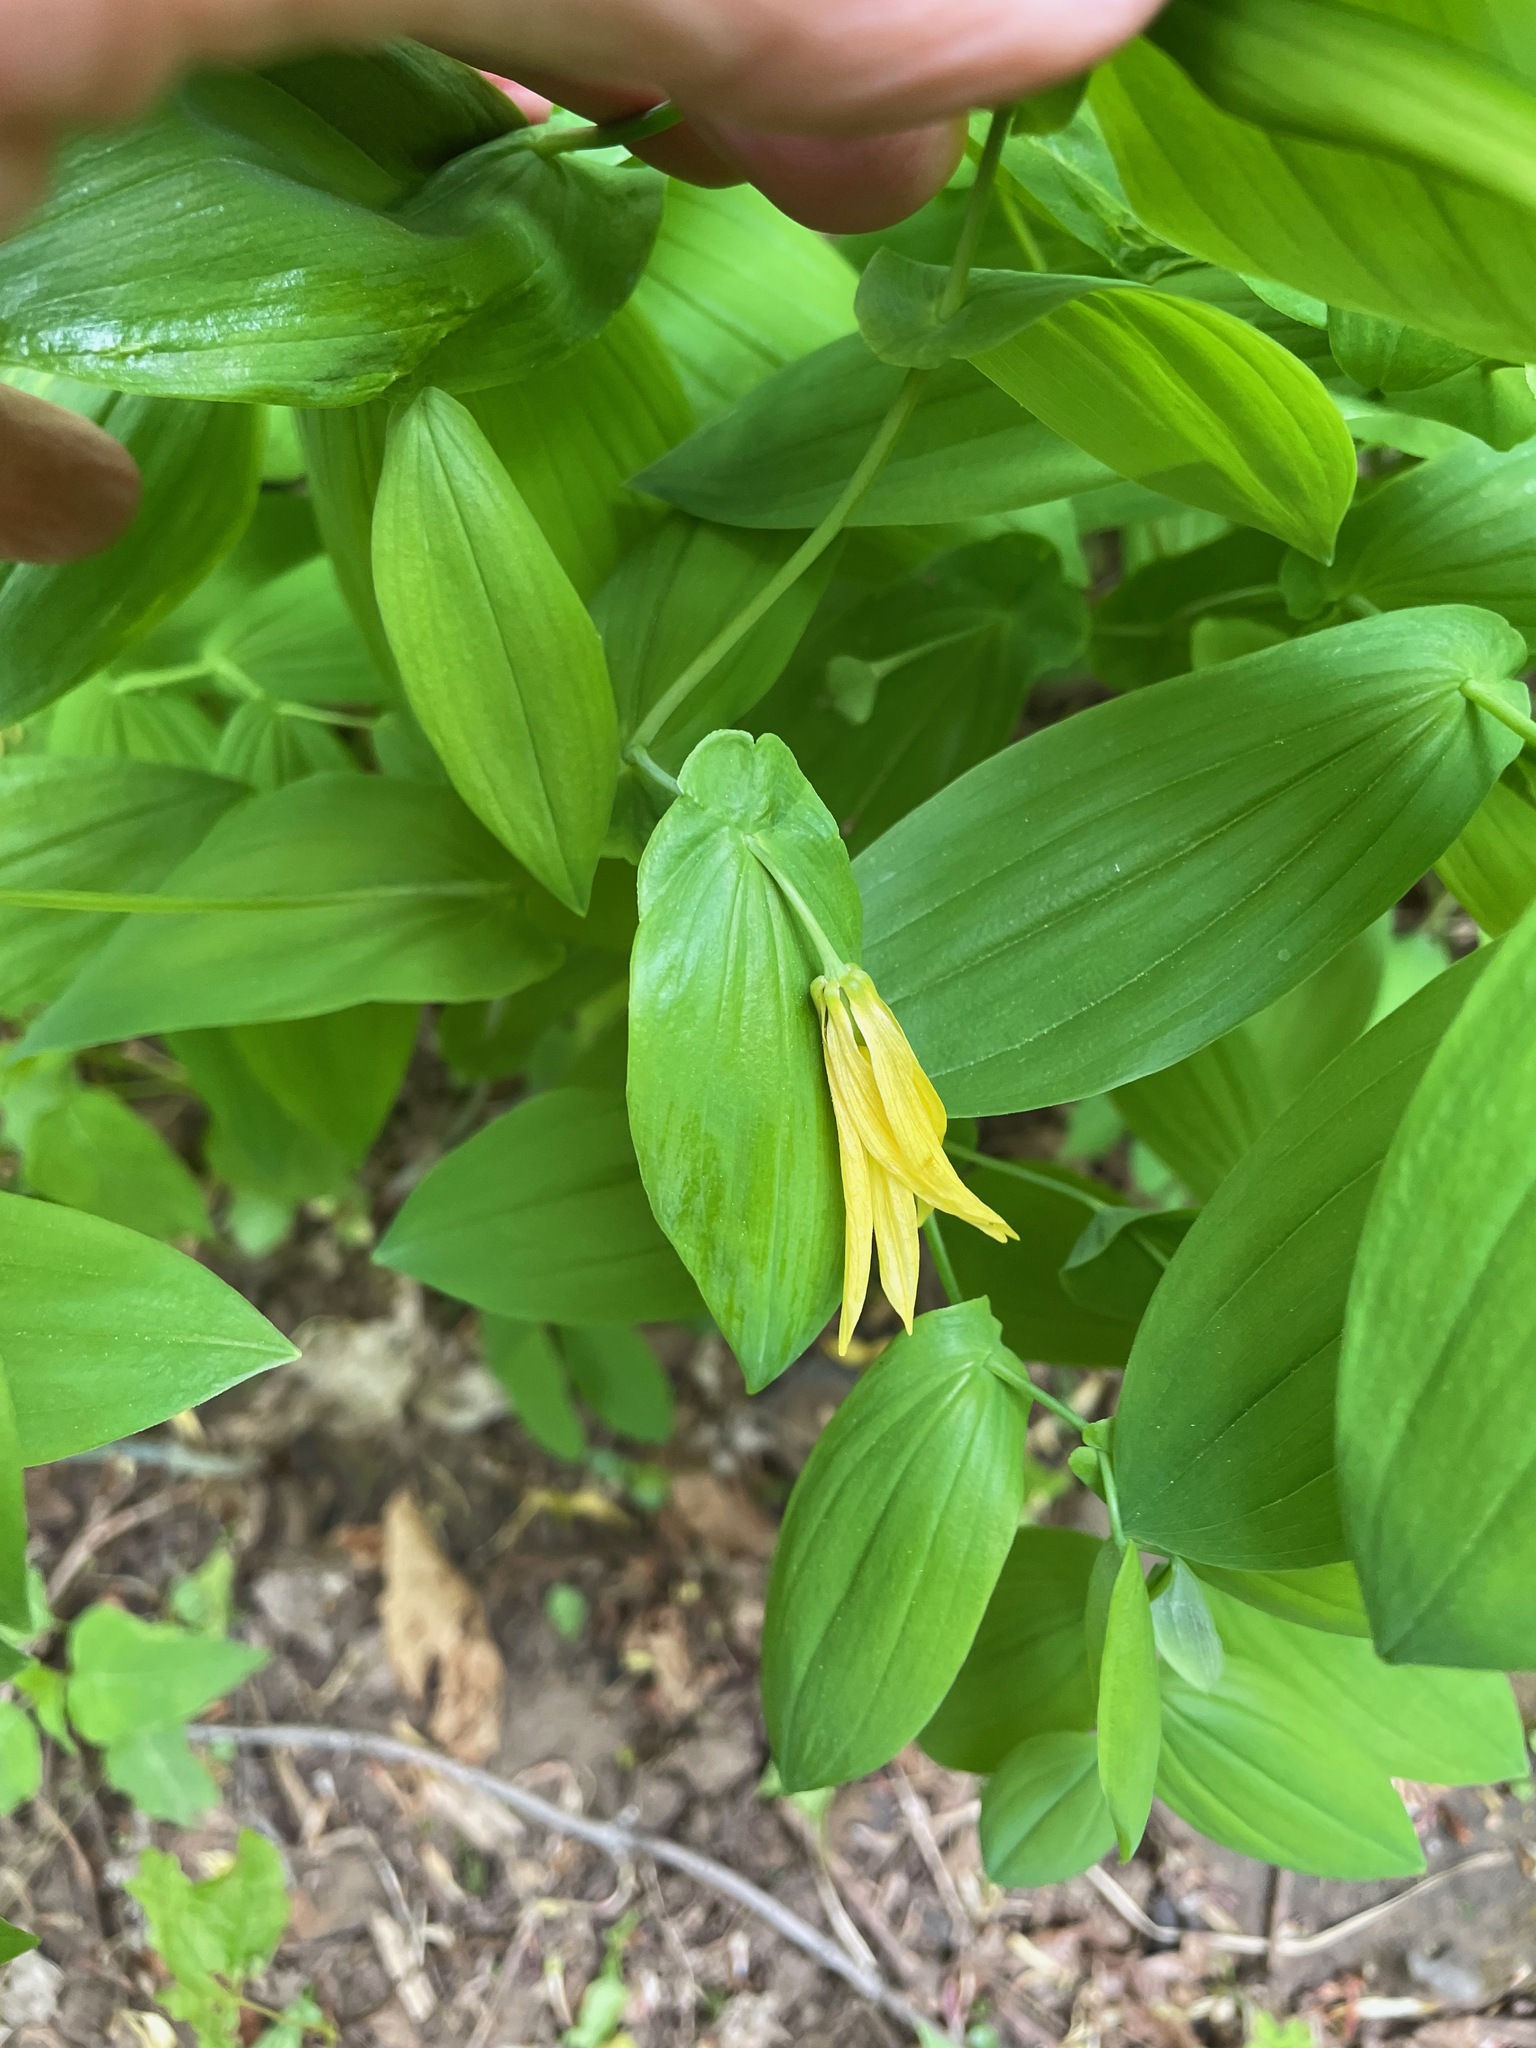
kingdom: Plantae
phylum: Tracheophyta
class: Liliopsida
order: Liliales
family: Colchicaceae
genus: Uvularia
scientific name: Uvularia grandiflora
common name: Bellwort
